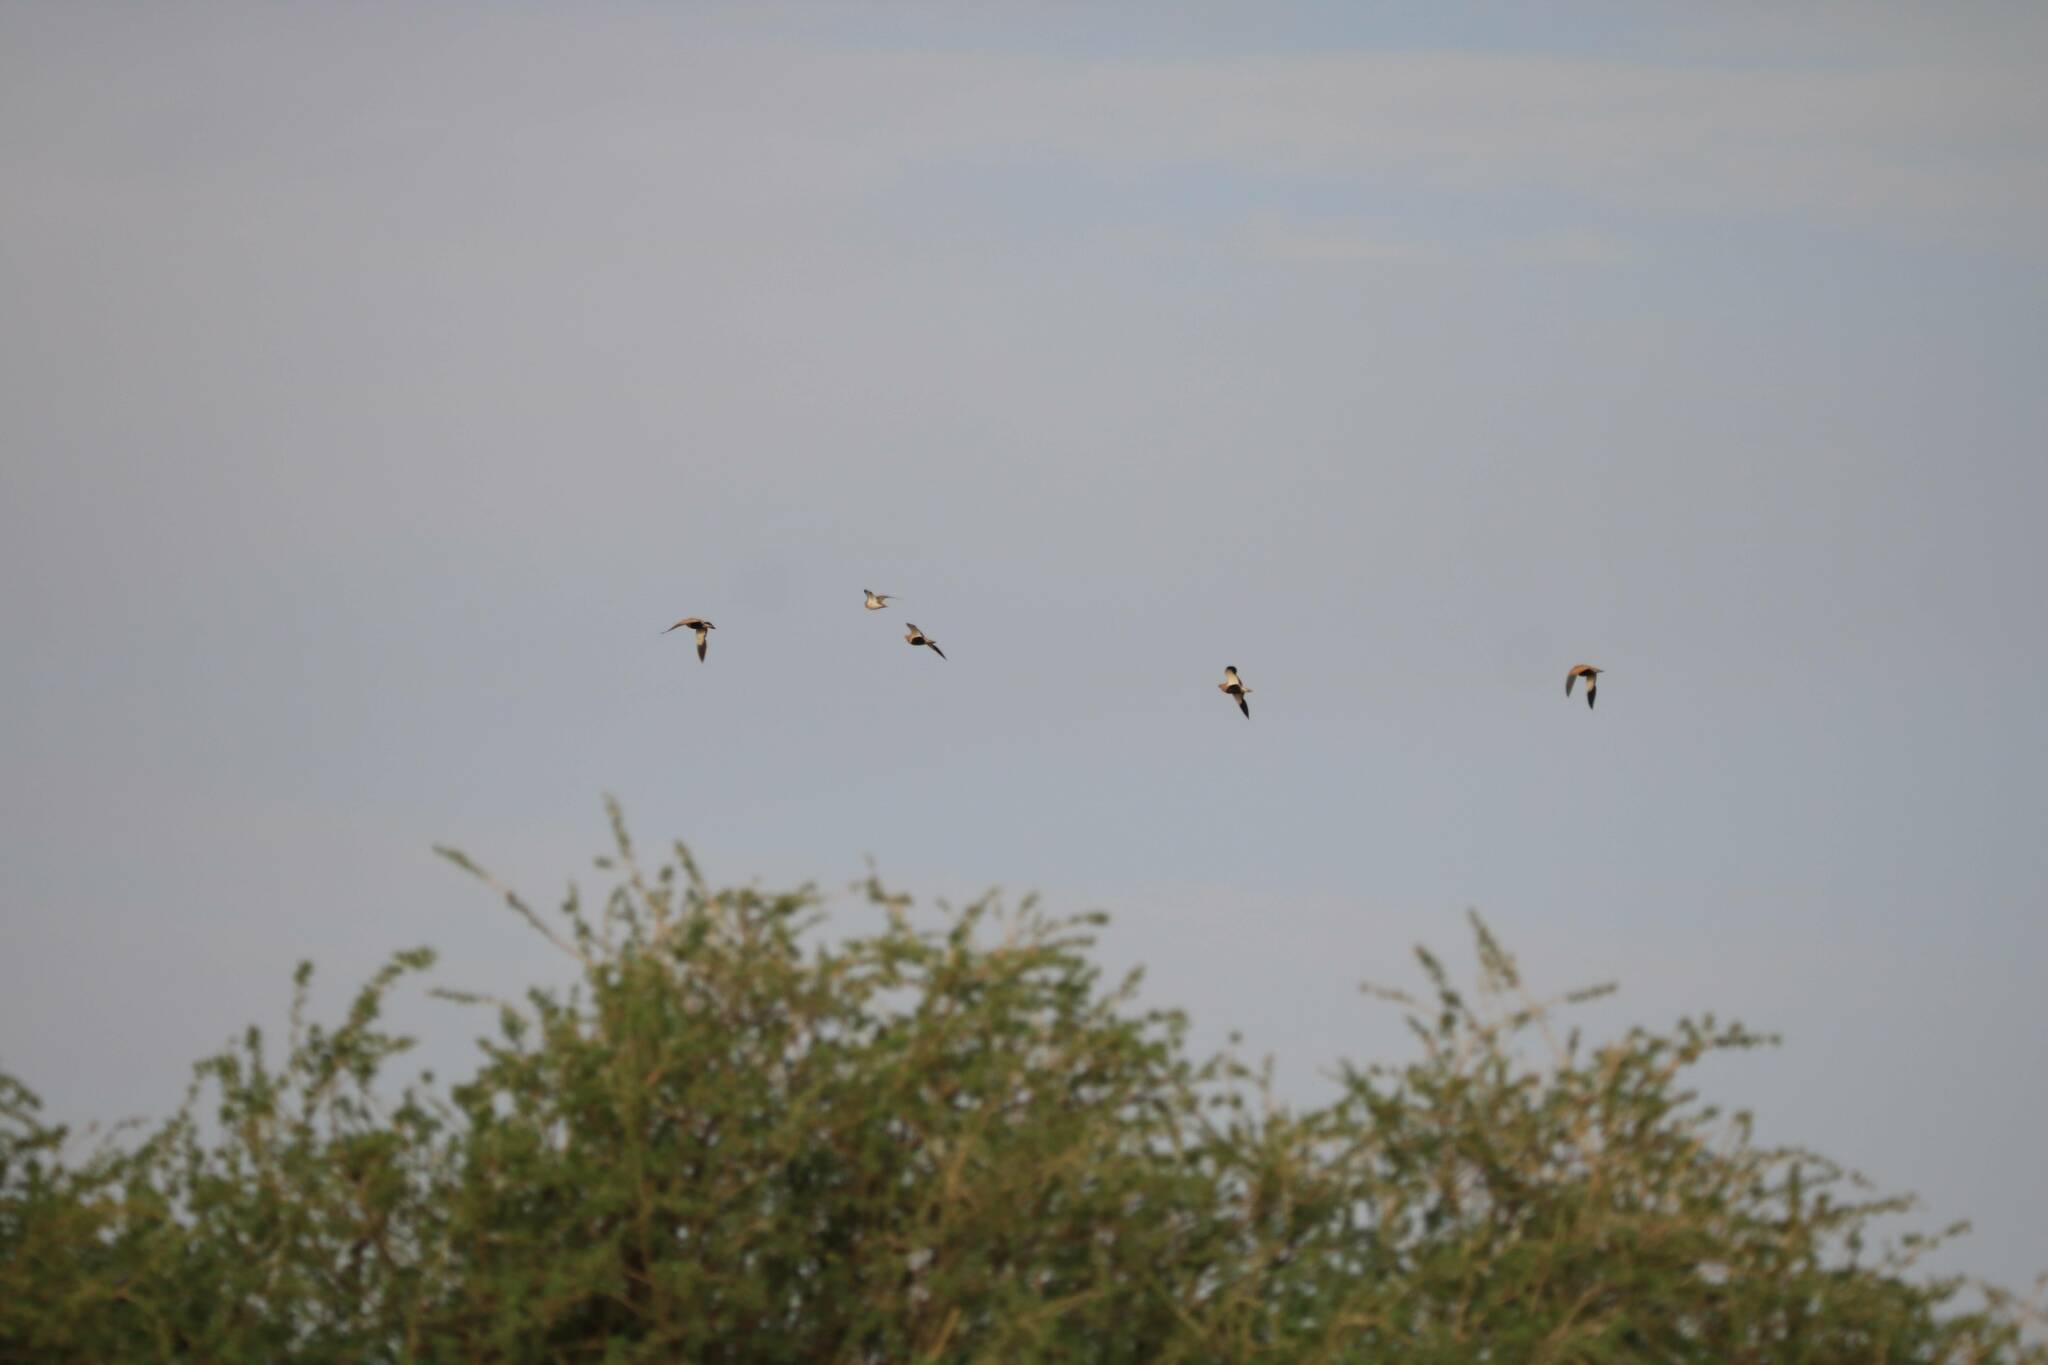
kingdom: Animalia
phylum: Chordata
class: Aves
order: Pteroclidiformes
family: Pteroclididae
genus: Pterocles
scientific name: Pterocles orientalis
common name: Black-bellied sandgrouse
